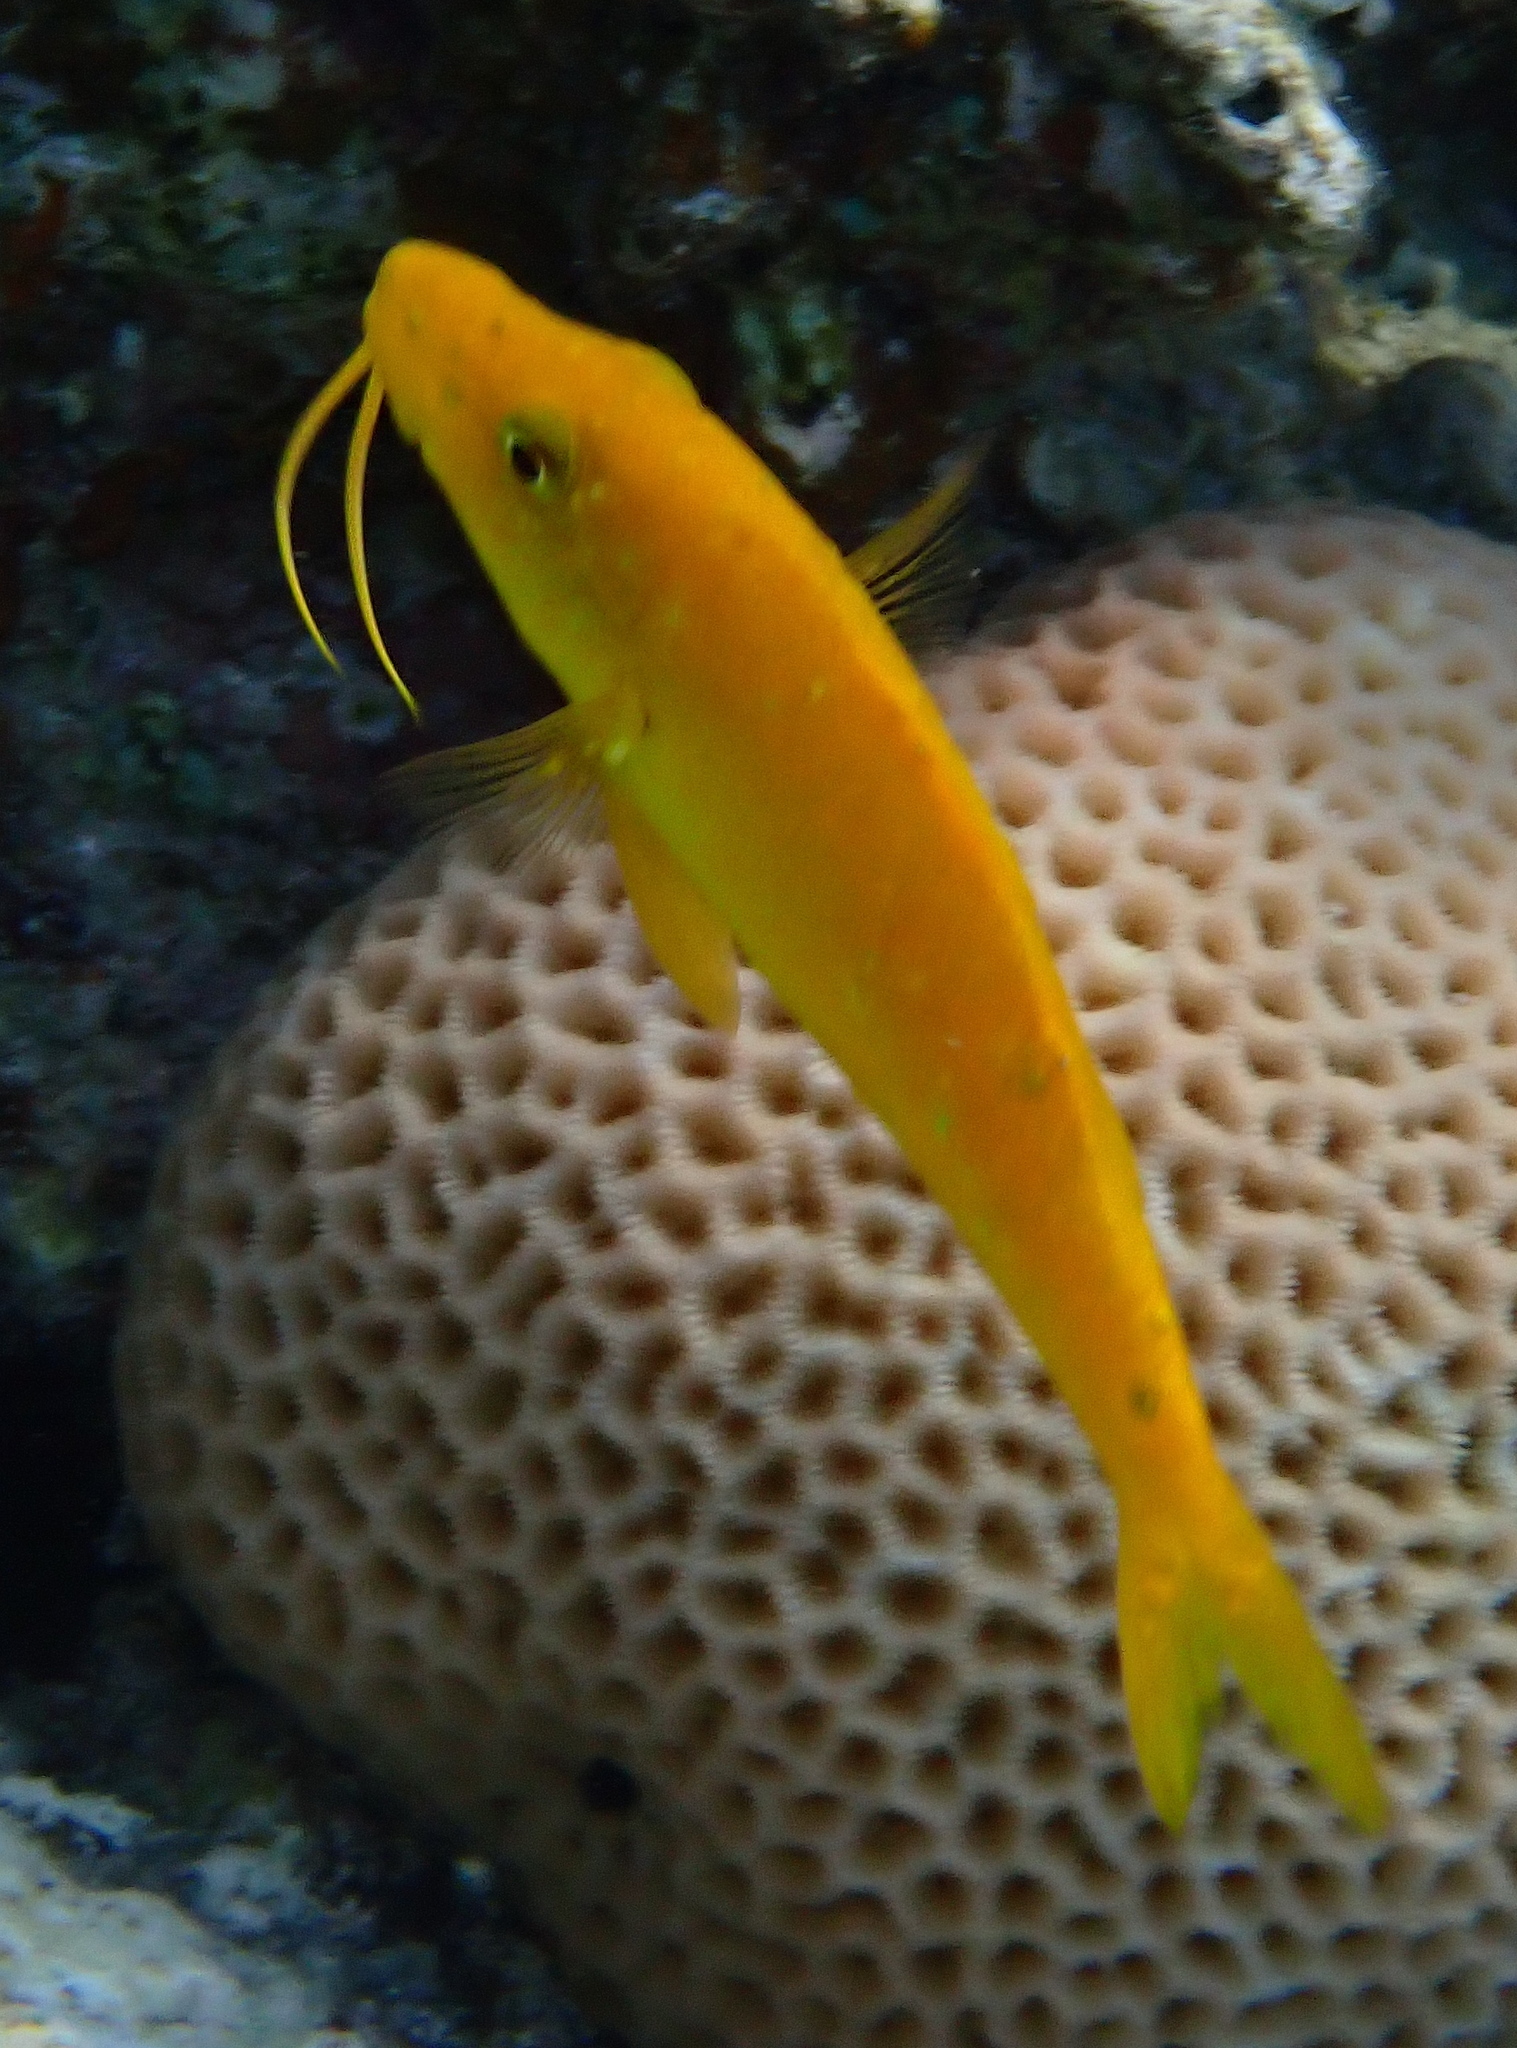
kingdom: Animalia
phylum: Chordata
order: Perciformes
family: Mullidae
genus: Parupeneus
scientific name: Parupeneus cyclostomus
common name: Goldsaddle goatfish
